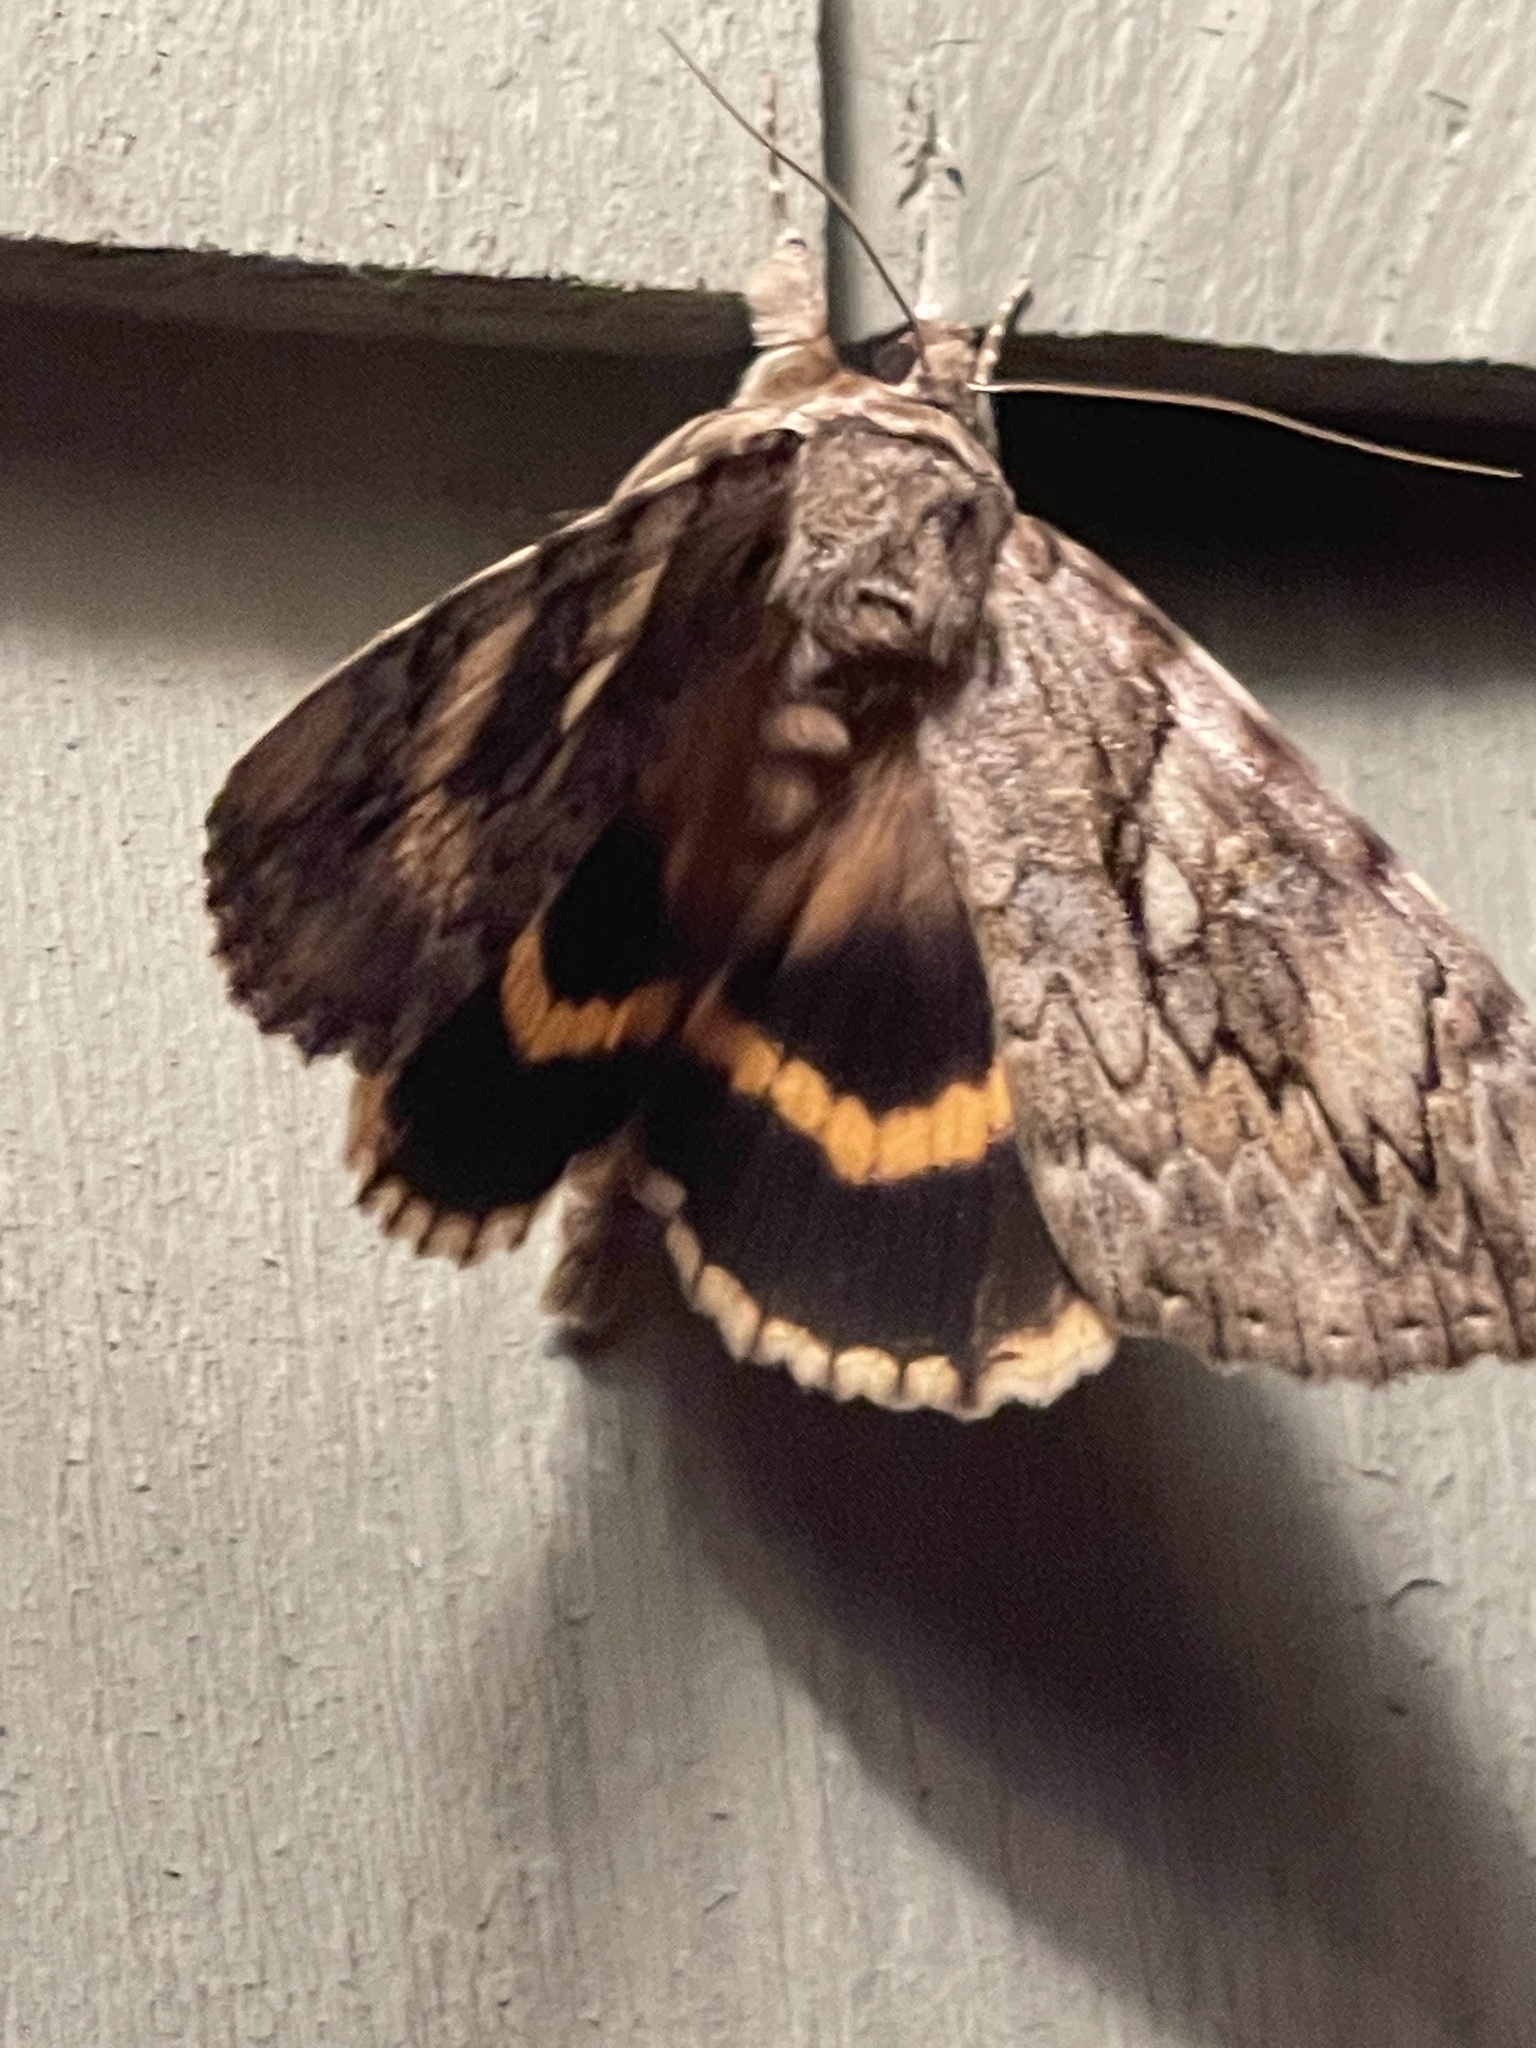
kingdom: Animalia
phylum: Arthropoda
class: Insecta
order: Lepidoptera
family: Erebidae
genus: Catocala
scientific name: Catocala cerogama
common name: Yellow banded underwing
